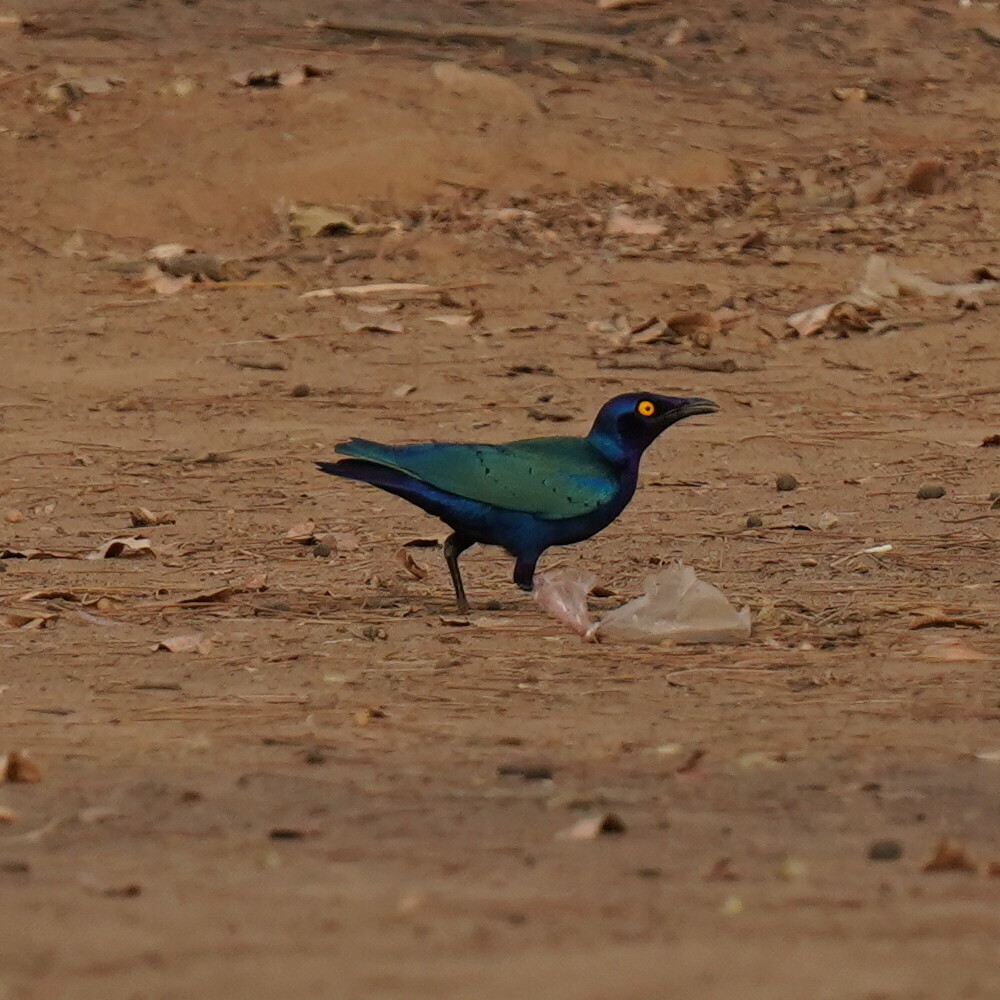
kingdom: Animalia
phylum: Chordata
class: Aves
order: Passeriformes
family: Sturnidae
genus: Lamprotornis
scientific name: Lamprotornis purpureus
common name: Purple starling
